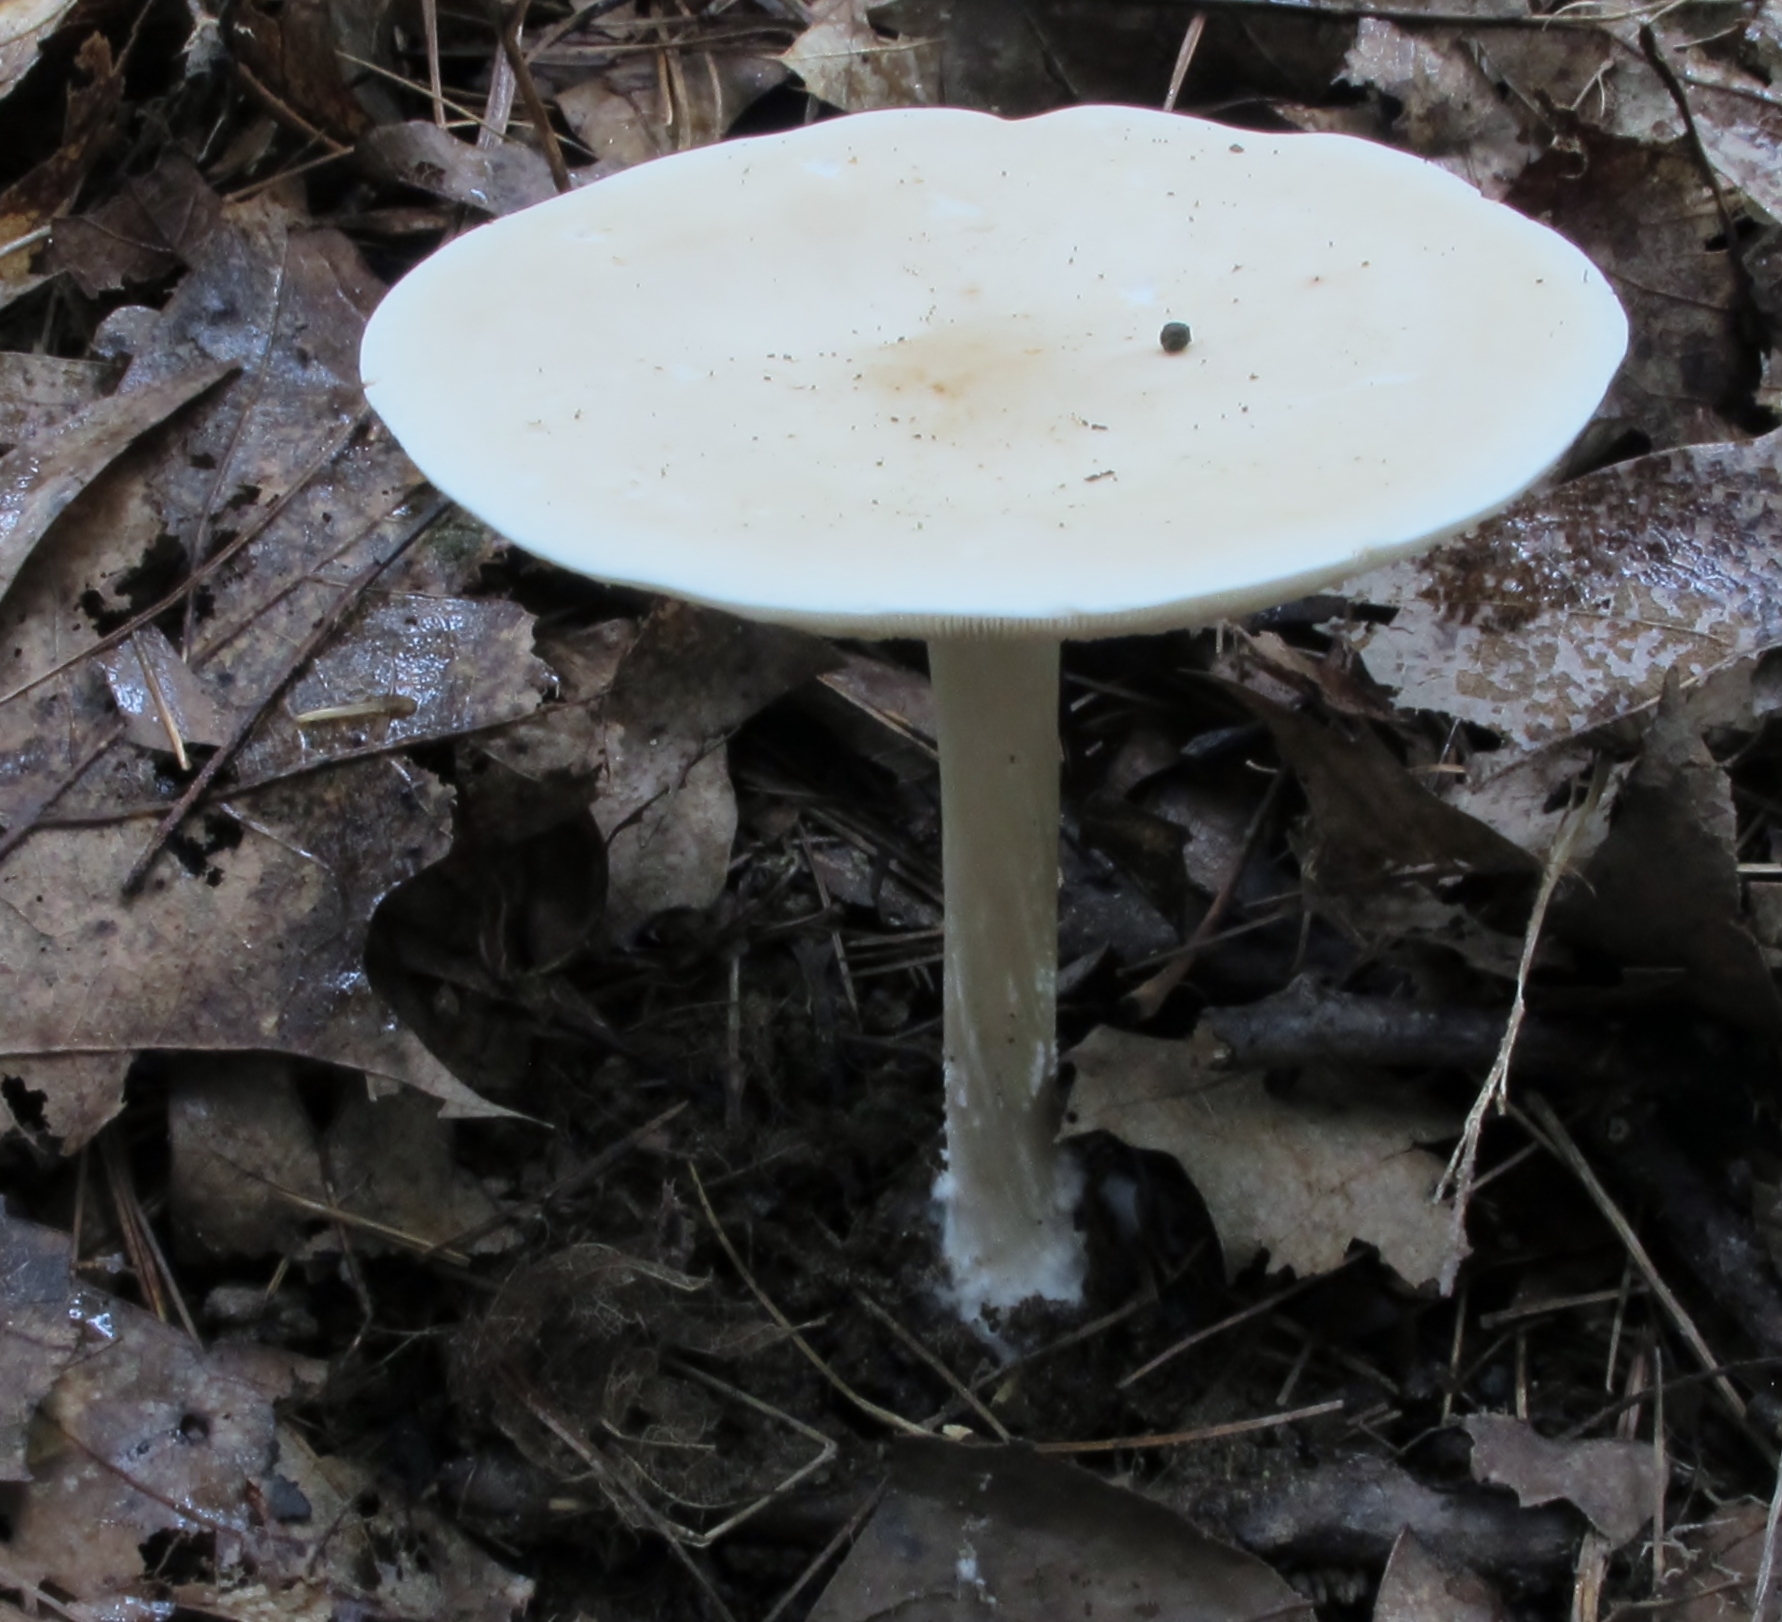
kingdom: Fungi
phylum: Basidiomycota
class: Agaricomycetes
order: Agaricales
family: Tricholomataceae
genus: Collybia
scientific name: Collybia alboflavida
